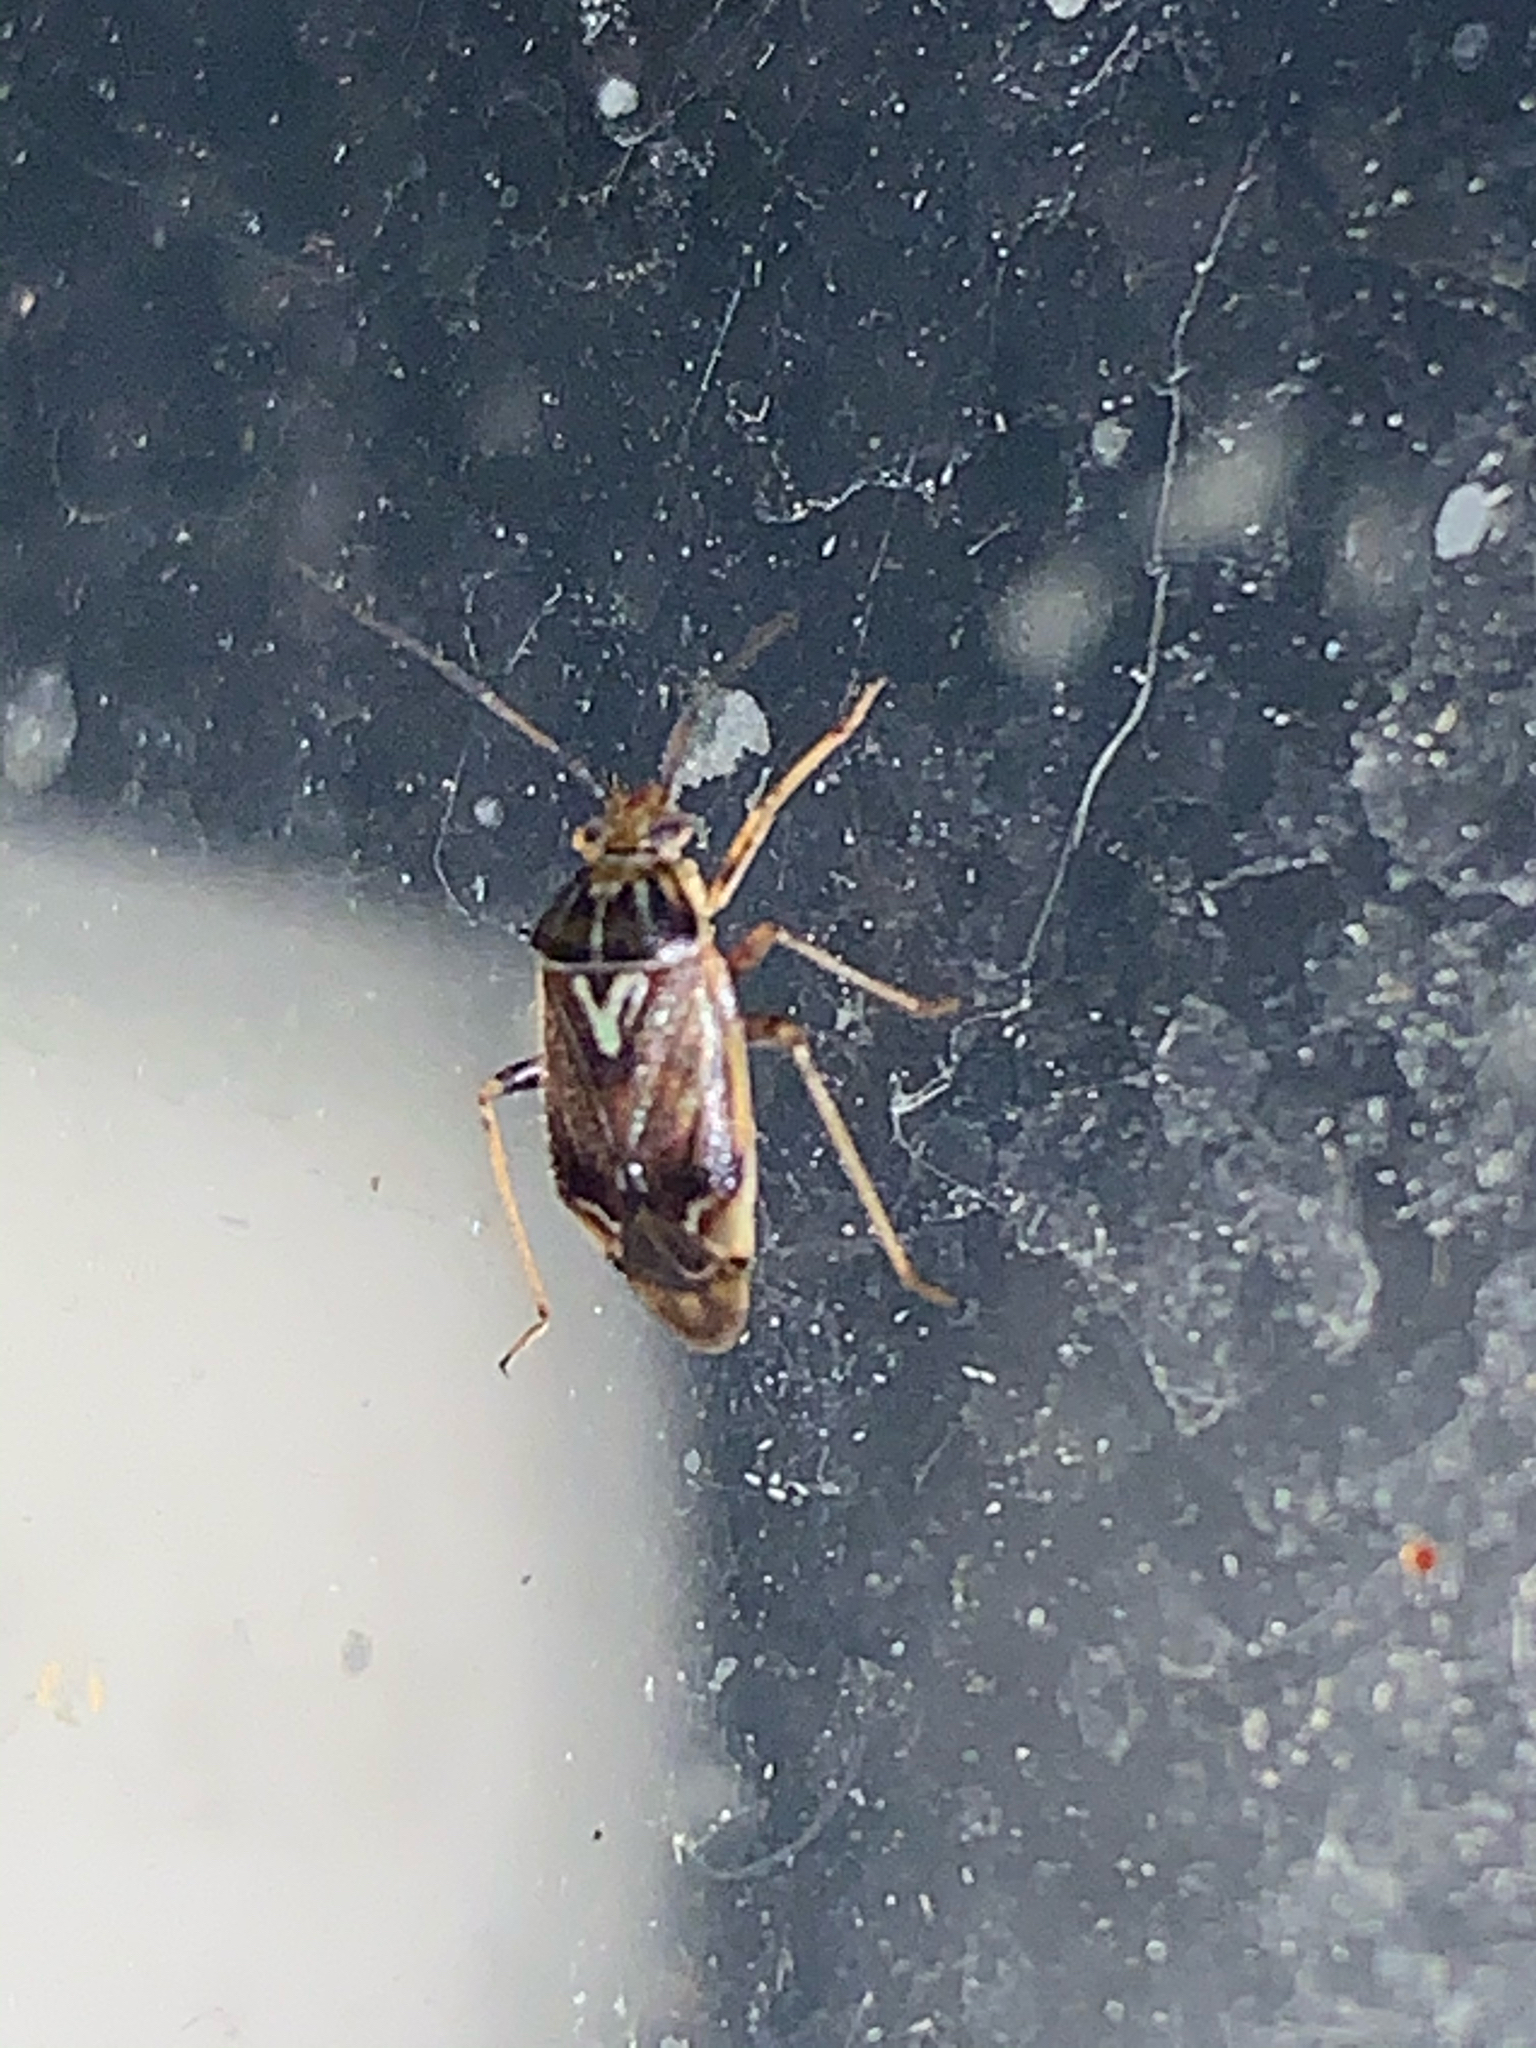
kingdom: Animalia
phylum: Arthropoda
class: Insecta
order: Hemiptera
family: Miridae
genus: Lygus
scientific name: Lygus lineolaris
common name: North american tarnished plant bug
